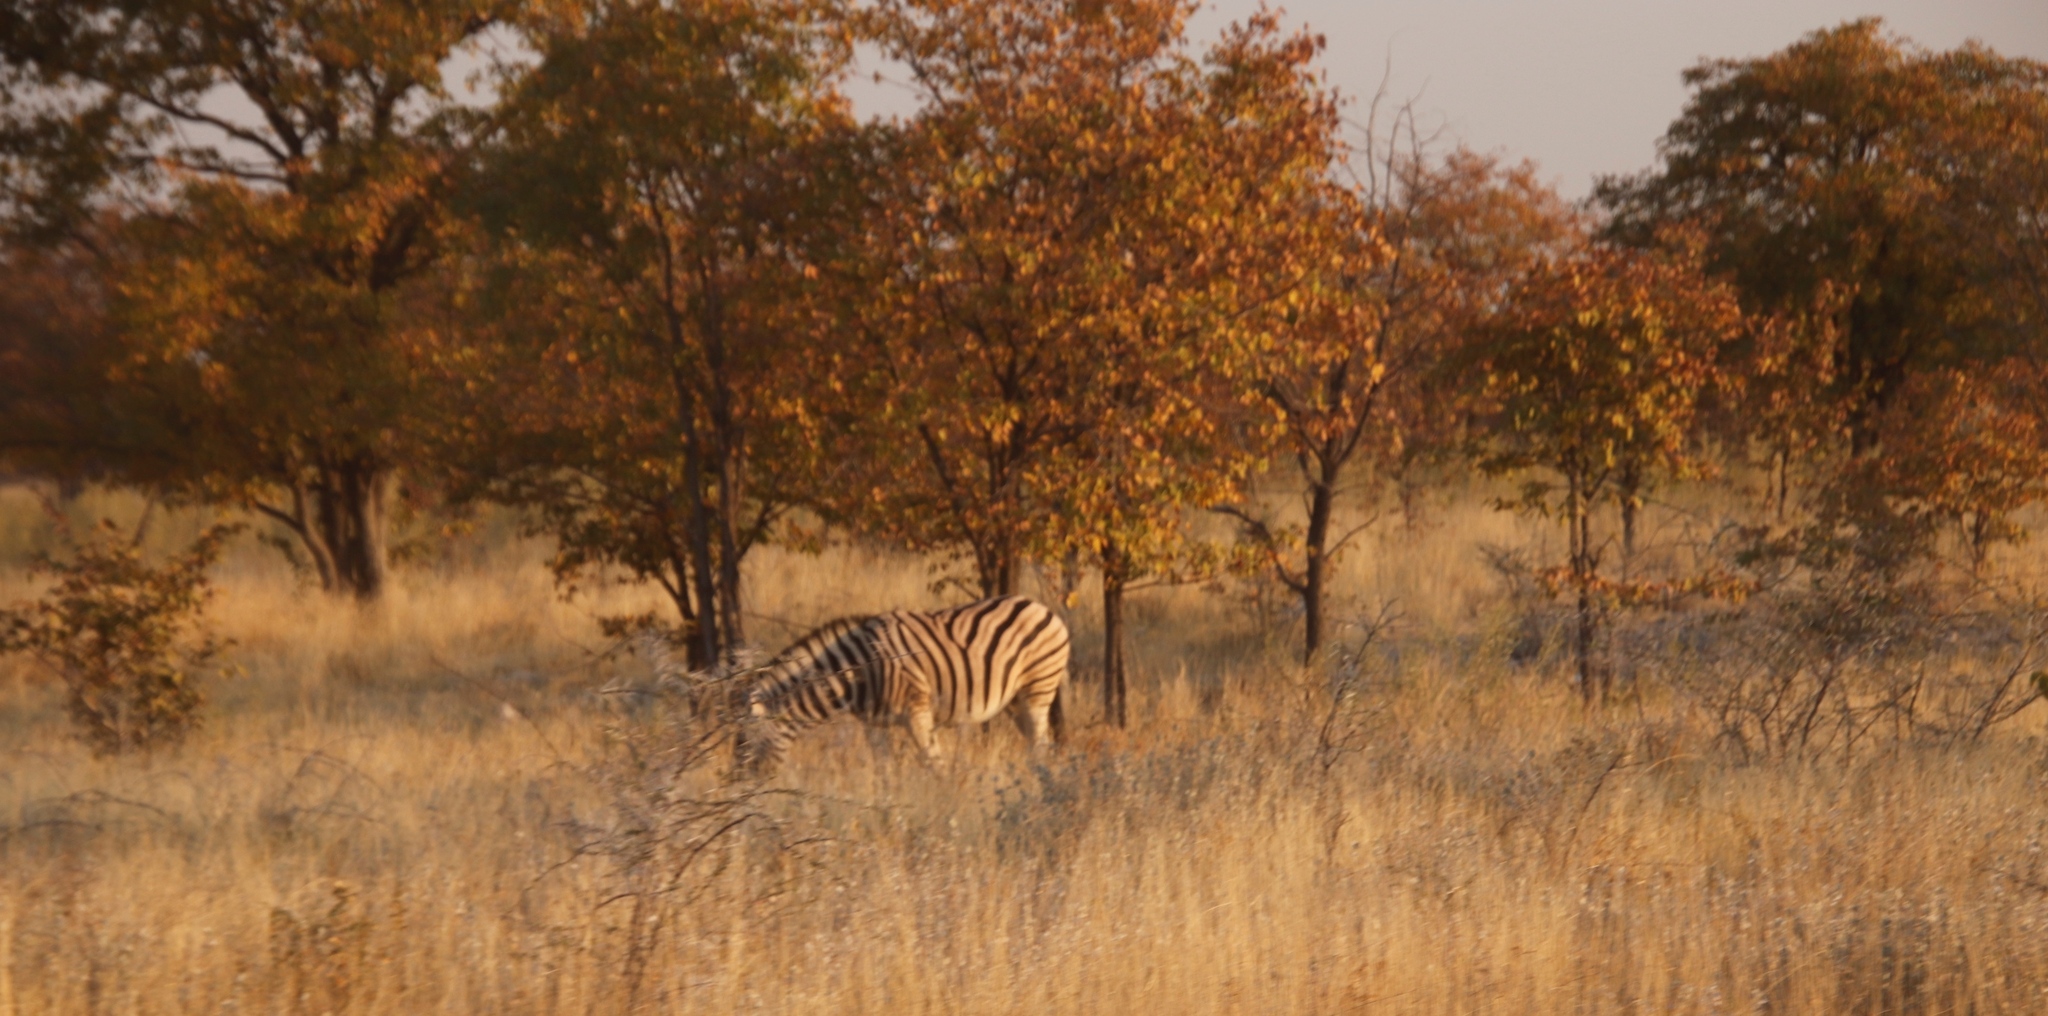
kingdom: Plantae
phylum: Tracheophyta
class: Magnoliopsida
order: Fabales
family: Fabaceae
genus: Colophospermum
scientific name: Colophospermum mopane
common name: Mopane
